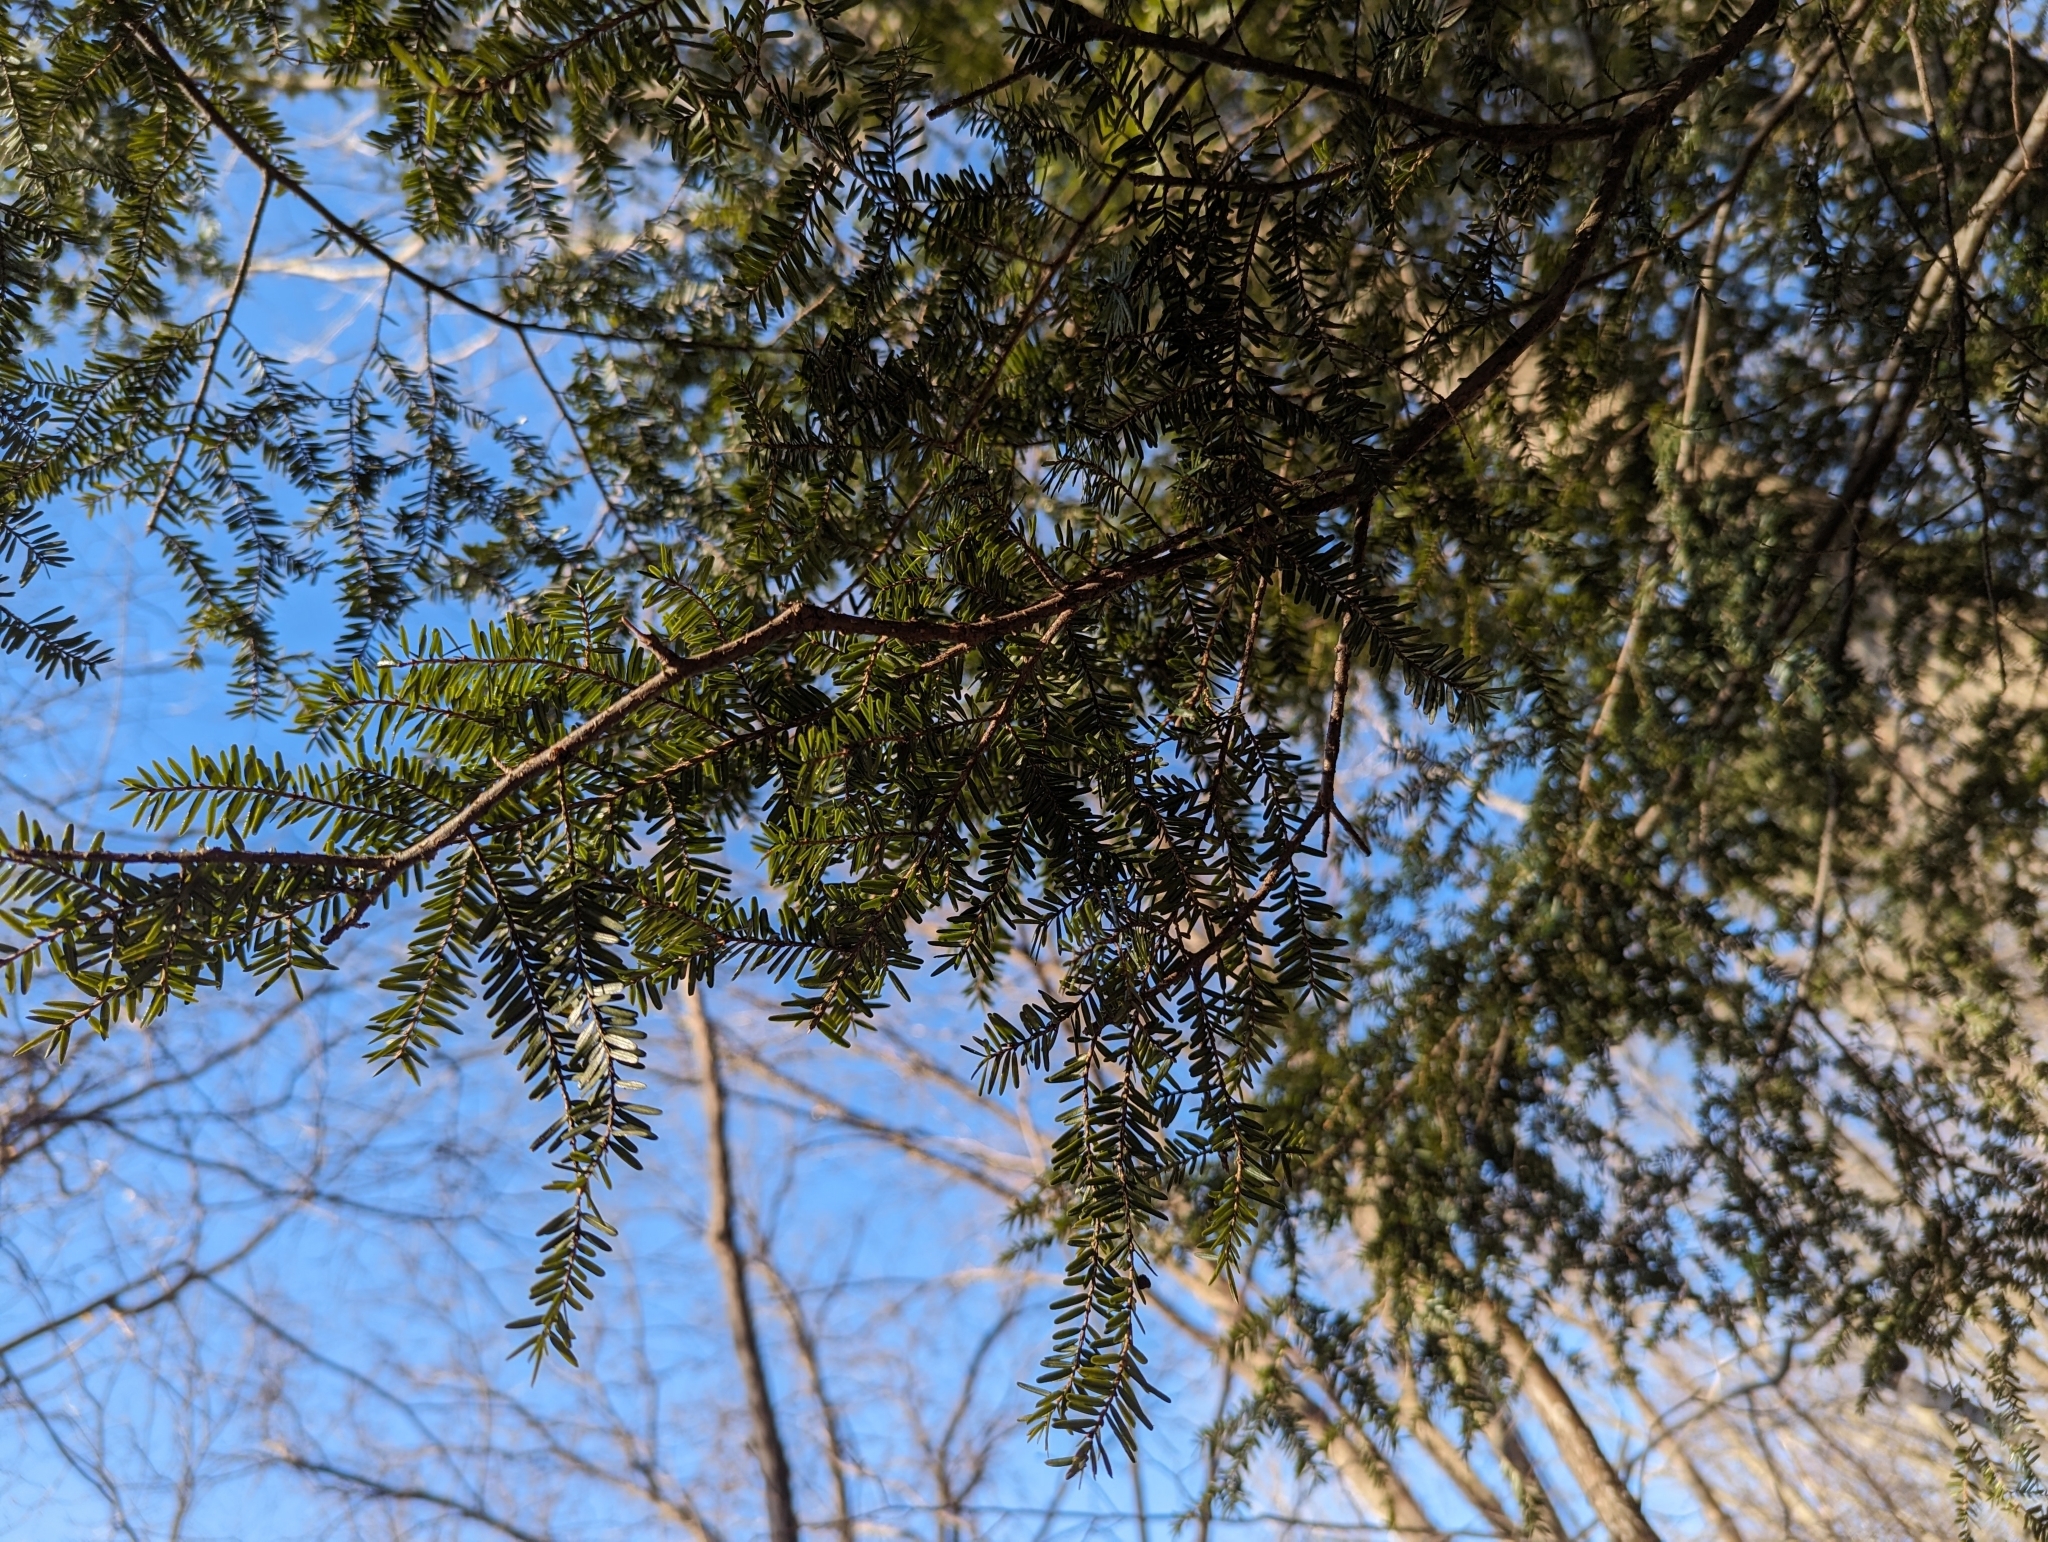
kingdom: Plantae
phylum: Tracheophyta
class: Pinopsida
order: Pinales
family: Pinaceae
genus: Tsuga
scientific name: Tsuga canadensis
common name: Eastern hemlock
